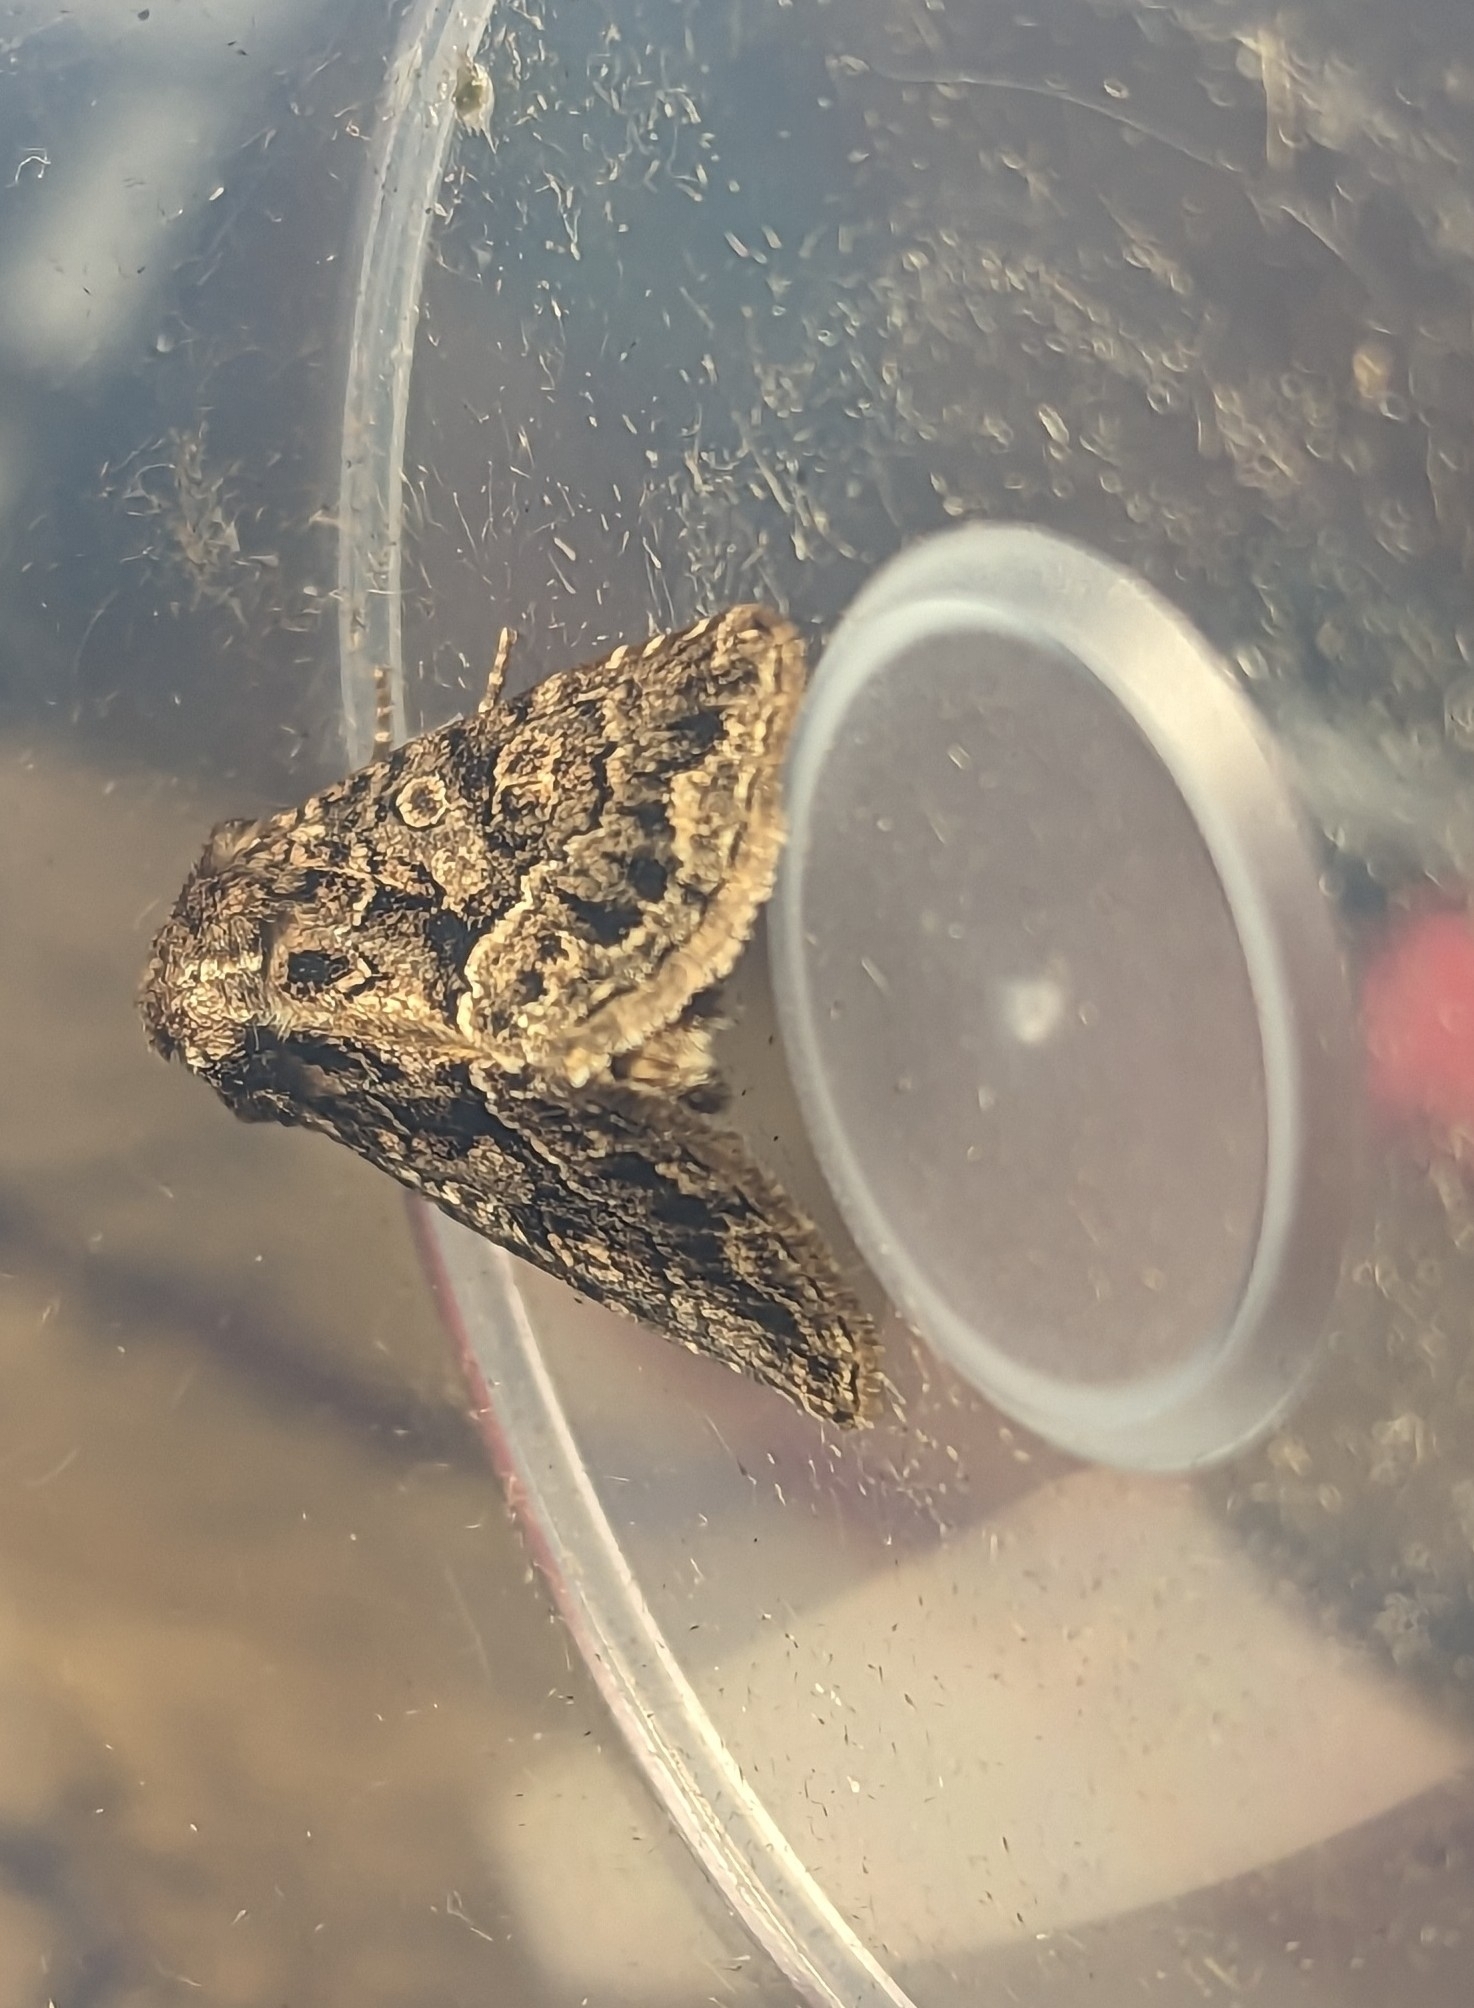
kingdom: Animalia
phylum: Arthropoda
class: Insecta
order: Lepidoptera
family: Noctuidae
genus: Thalpophila
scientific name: Thalpophila matura
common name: Straw underwing
